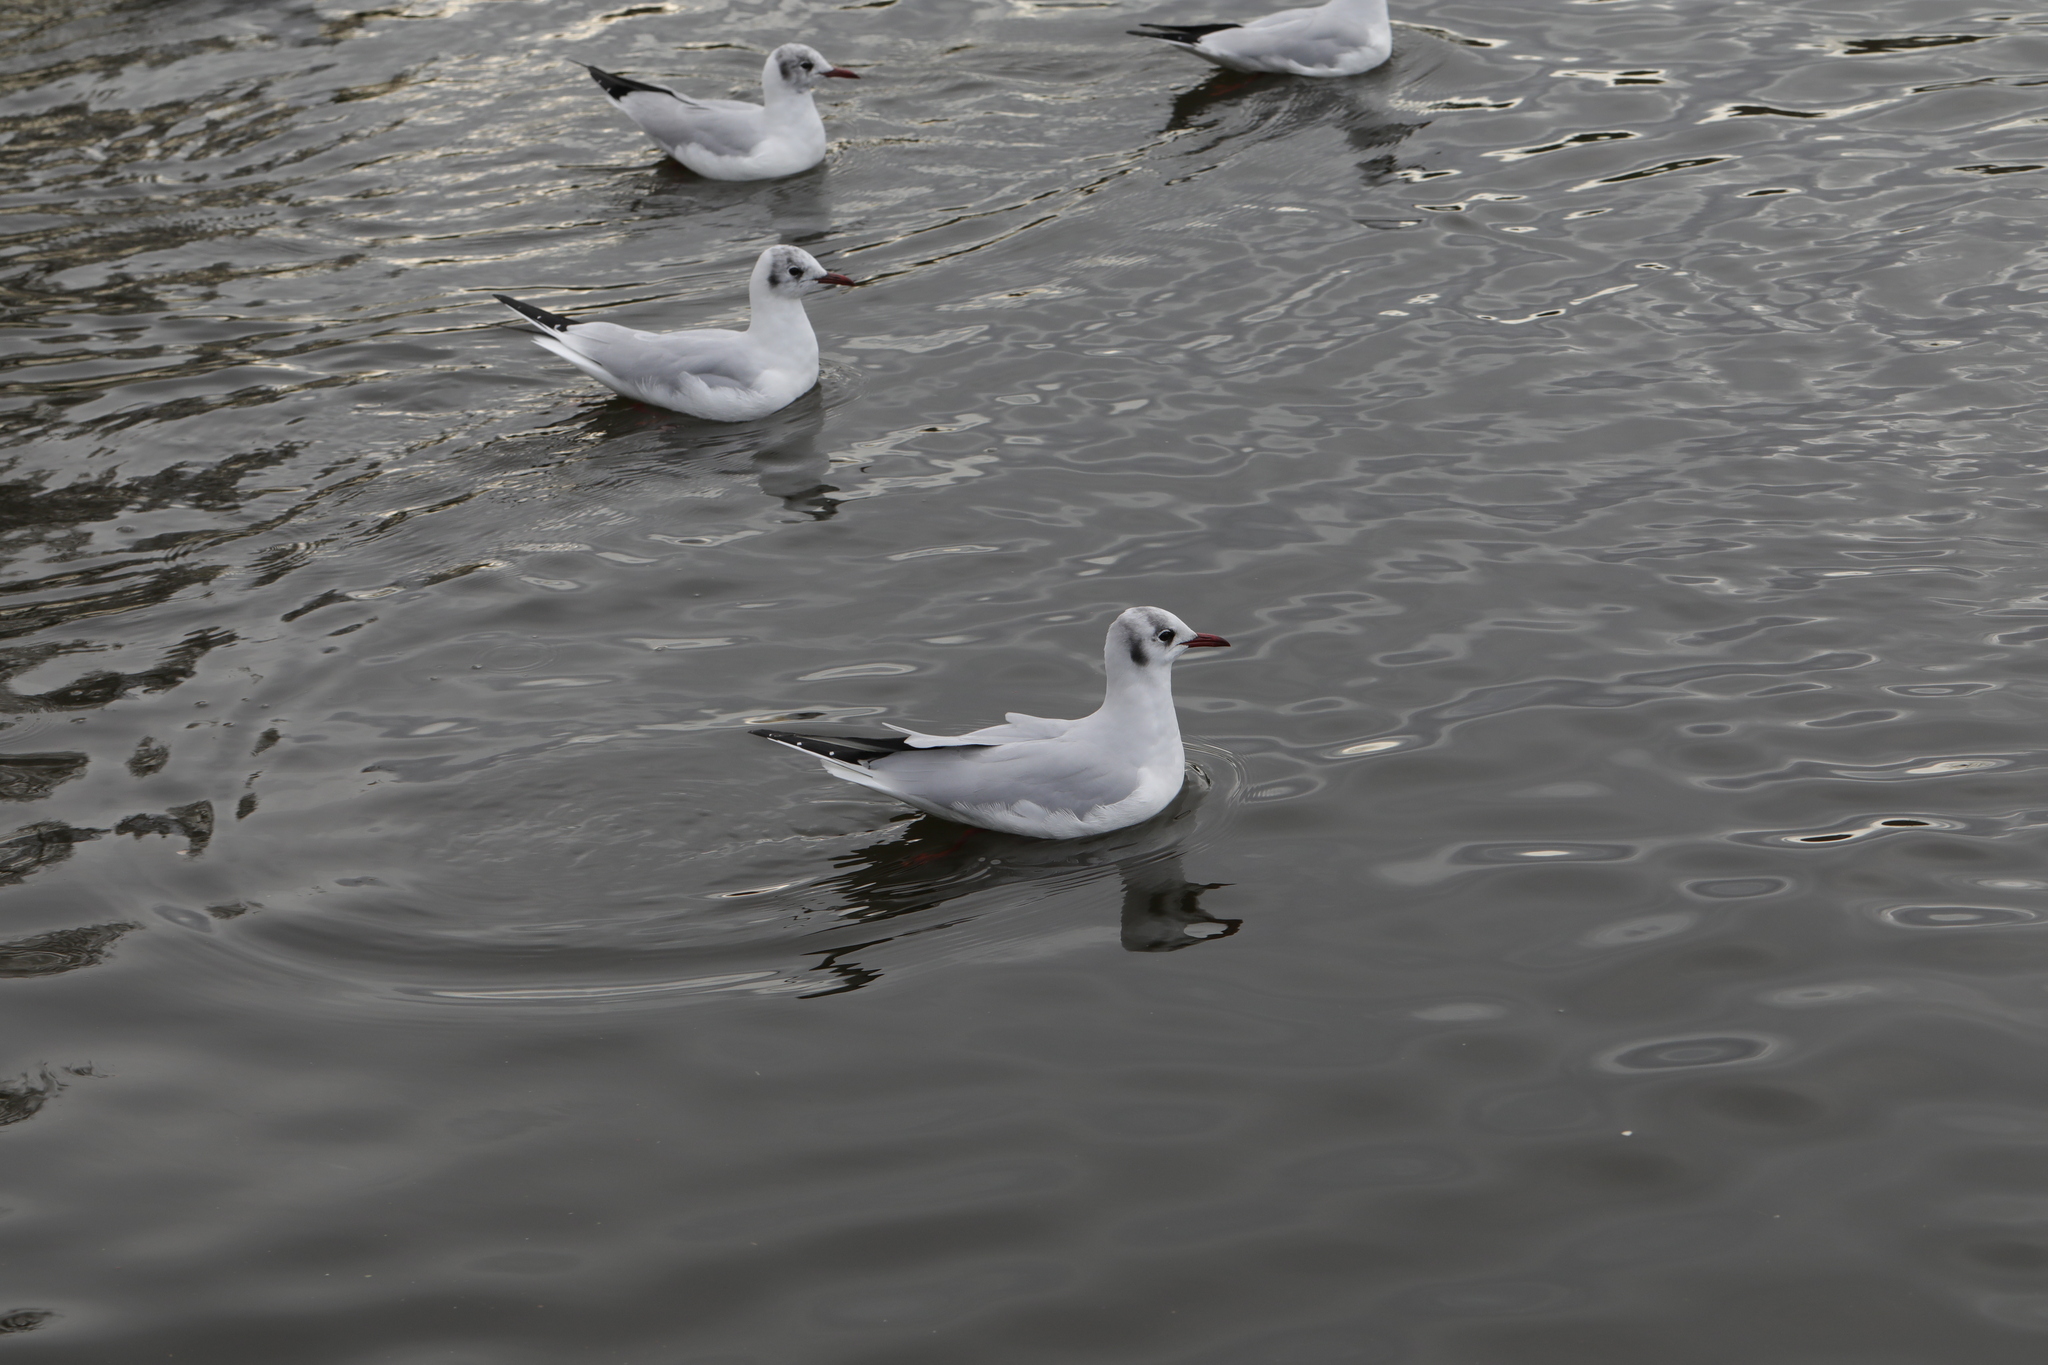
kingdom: Animalia
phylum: Chordata
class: Aves
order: Charadriiformes
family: Laridae
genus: Chroicocephalus
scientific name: Chroicocephalus ridibundus
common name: Black-headed gull
